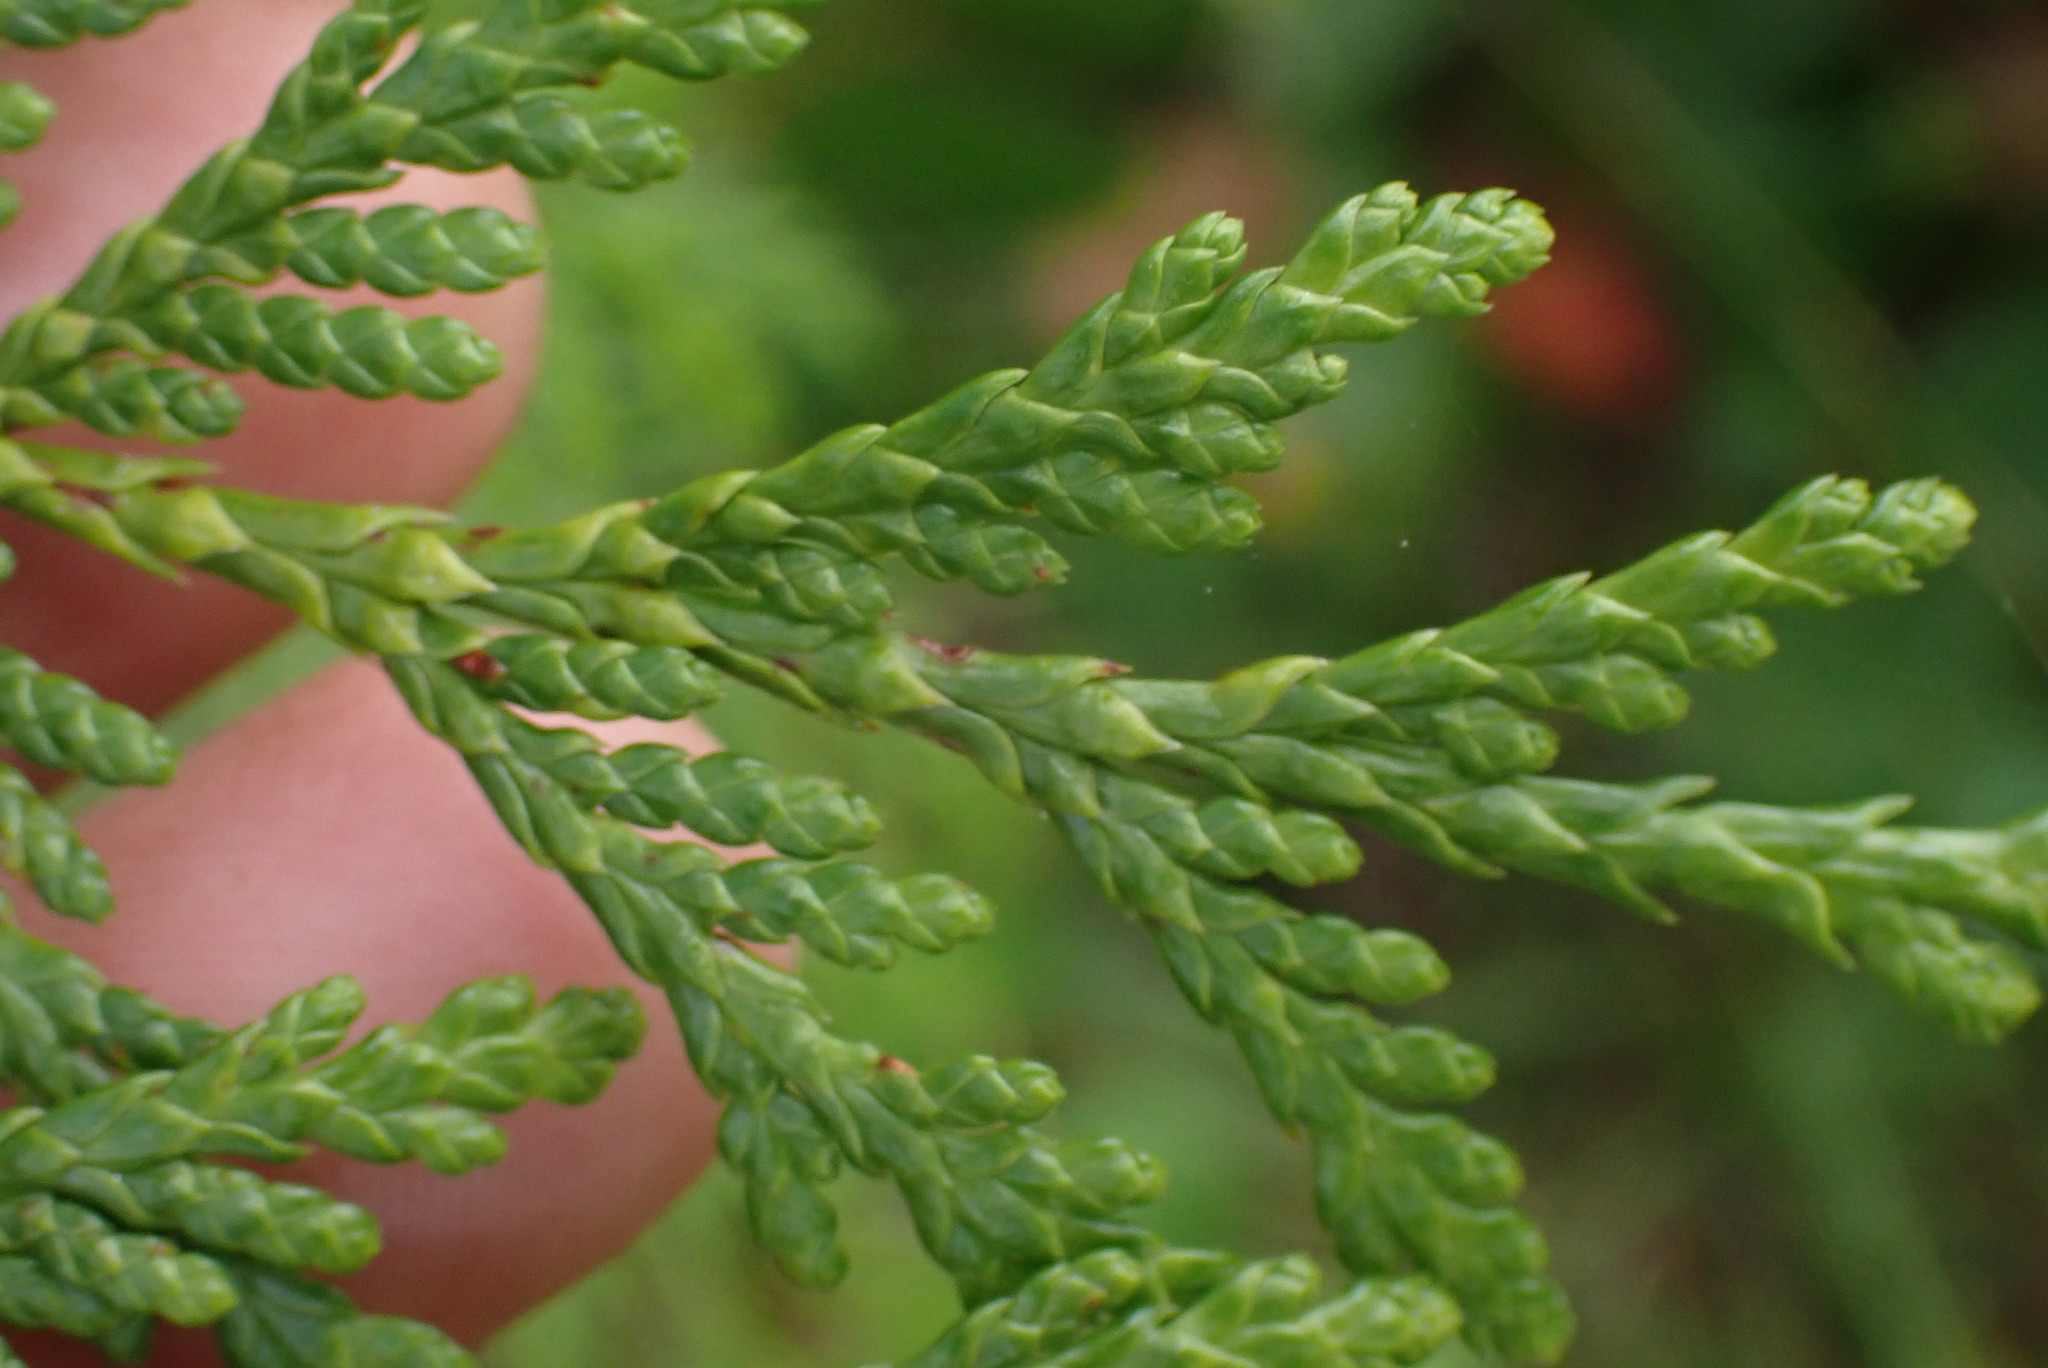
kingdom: Plantae
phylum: Tracheophyta
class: Pinopsida
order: Pinales
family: Cupressaceae
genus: Thuja
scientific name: Thuja plicata
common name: Western red-cedar
